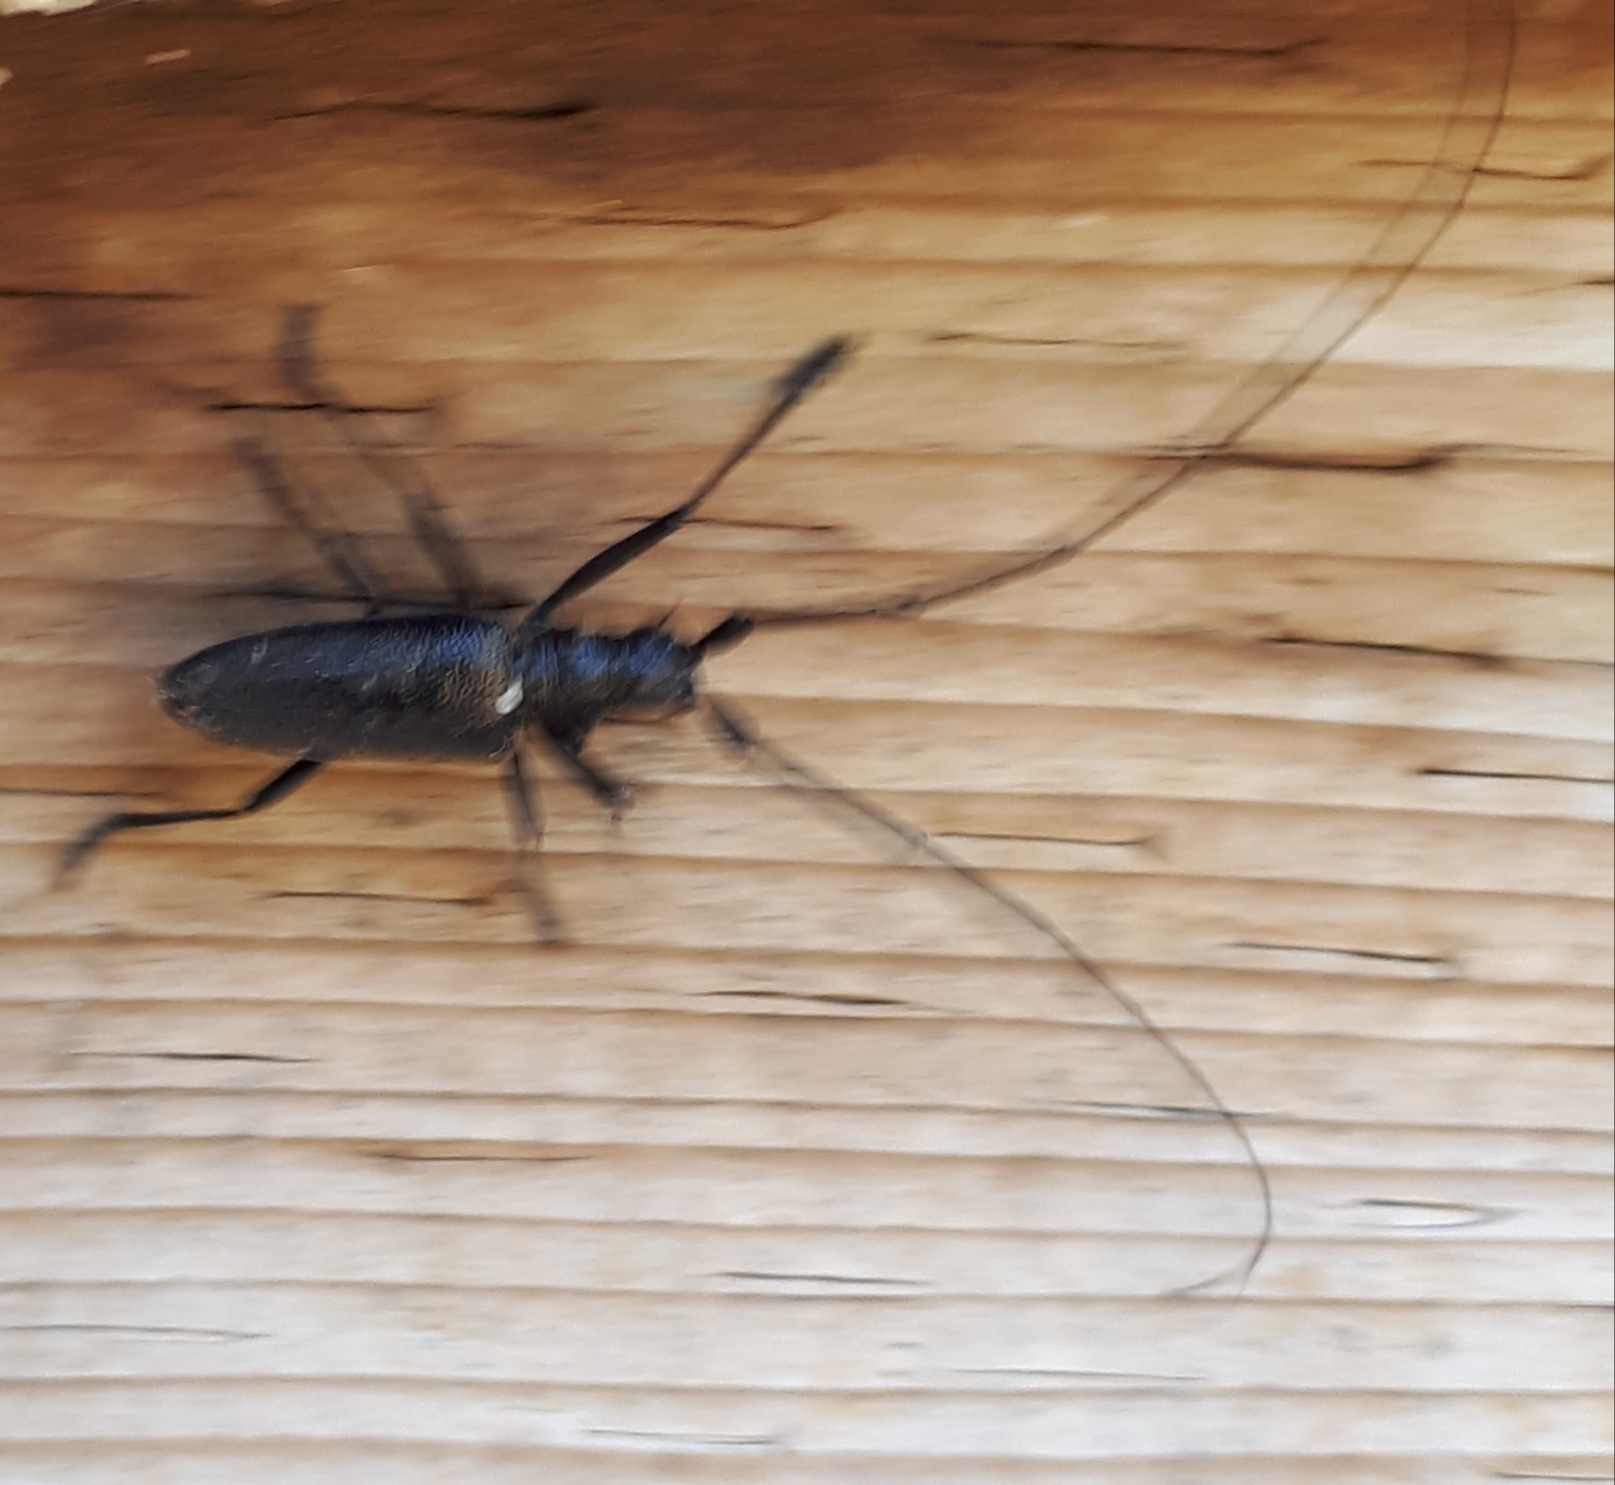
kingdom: Animalia
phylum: Arthropoda
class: Insecta
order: Coleoptera
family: Cerambycidae
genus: Monochamus
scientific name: Monochamus scutellatus
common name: White-spotted sawyer beetle
